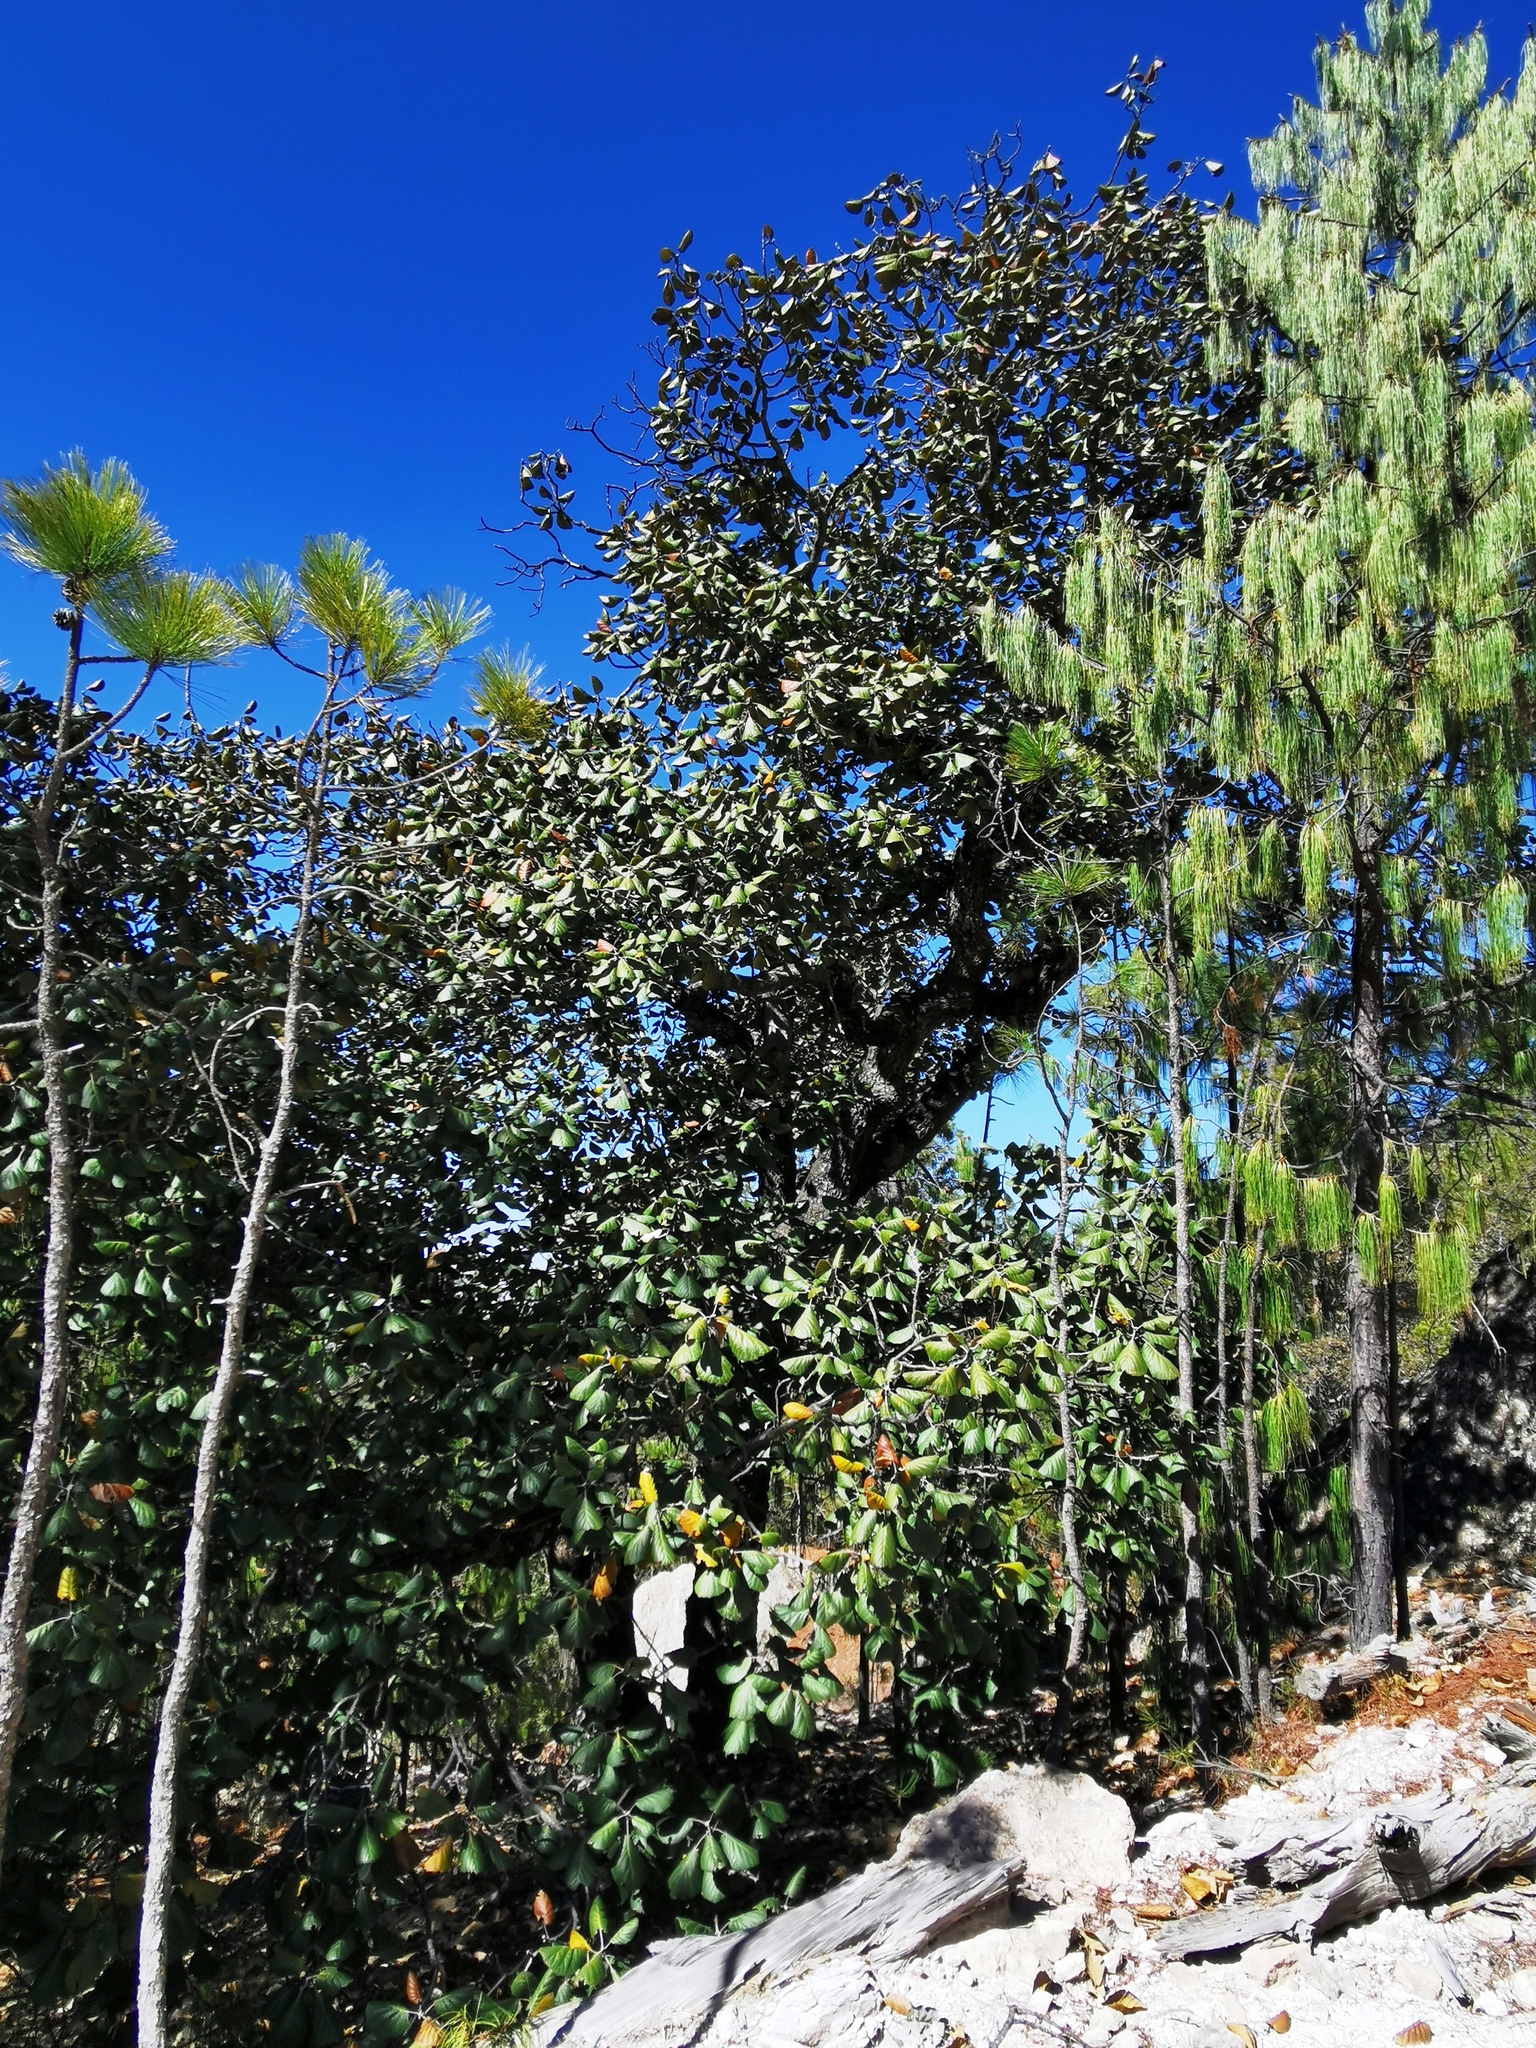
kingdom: Plantae
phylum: Tracheophyta
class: Magnoliopsida
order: Fagales
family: Fagaceae
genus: Quercus
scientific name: Quercus urbani
